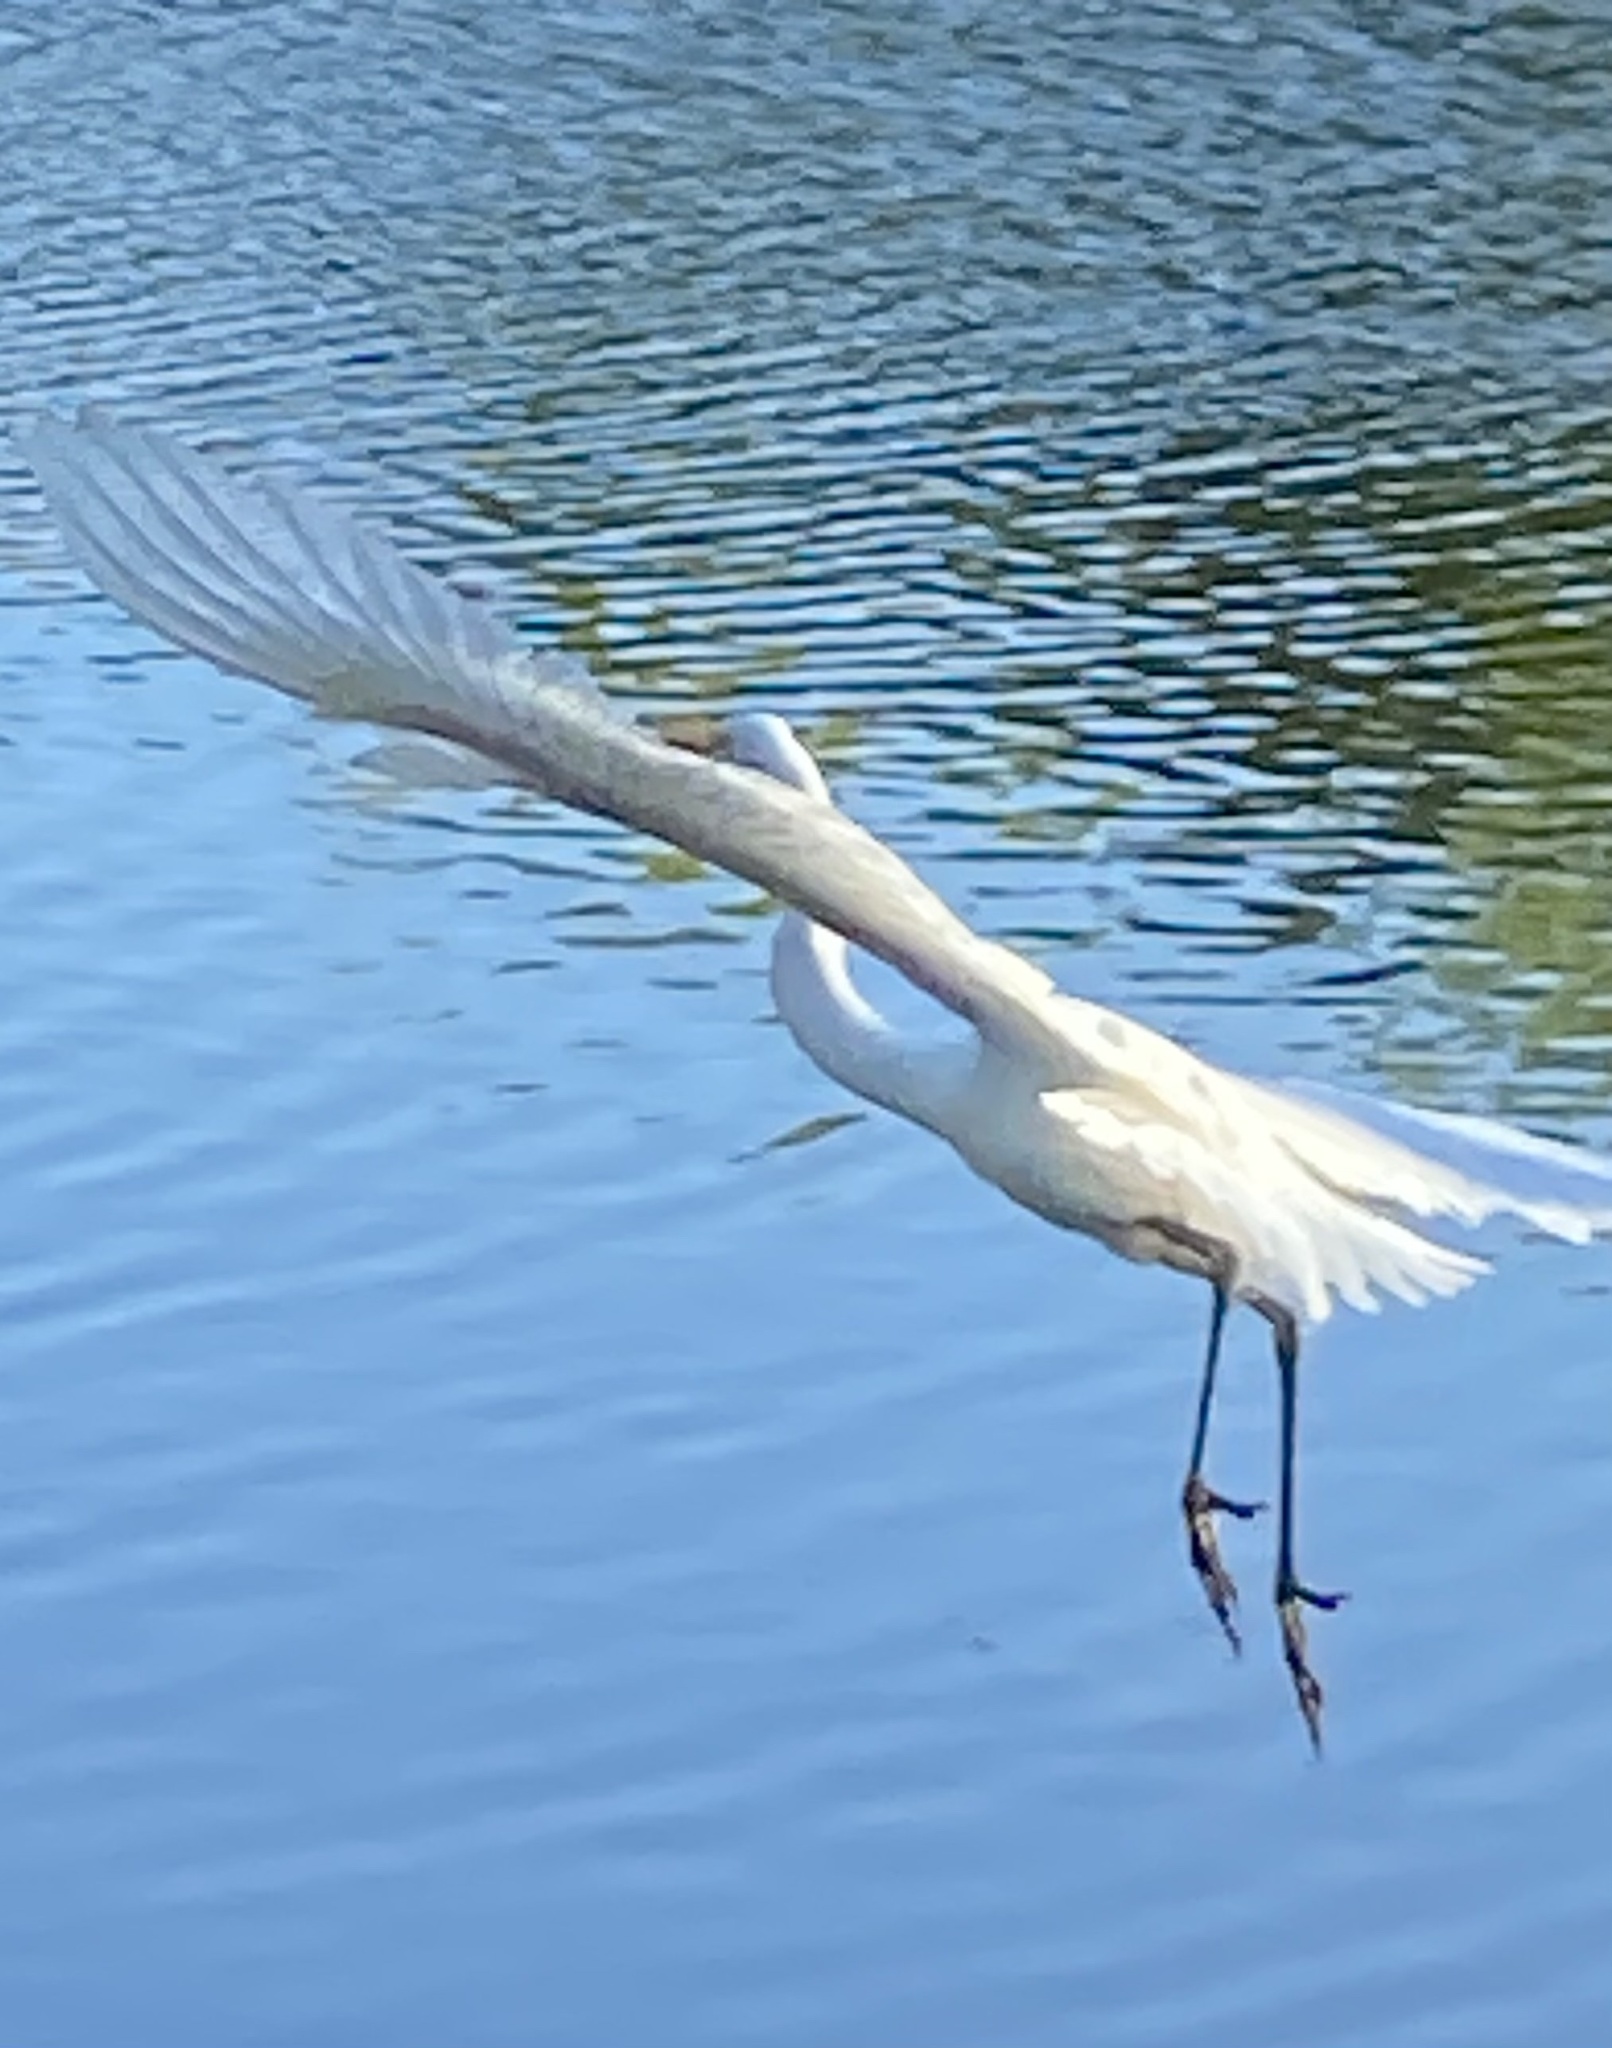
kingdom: Animalia
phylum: Chordata
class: Aves
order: Pelecaniformes
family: Ardeidae
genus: Ardea
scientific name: Ardea alba
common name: Great egret
